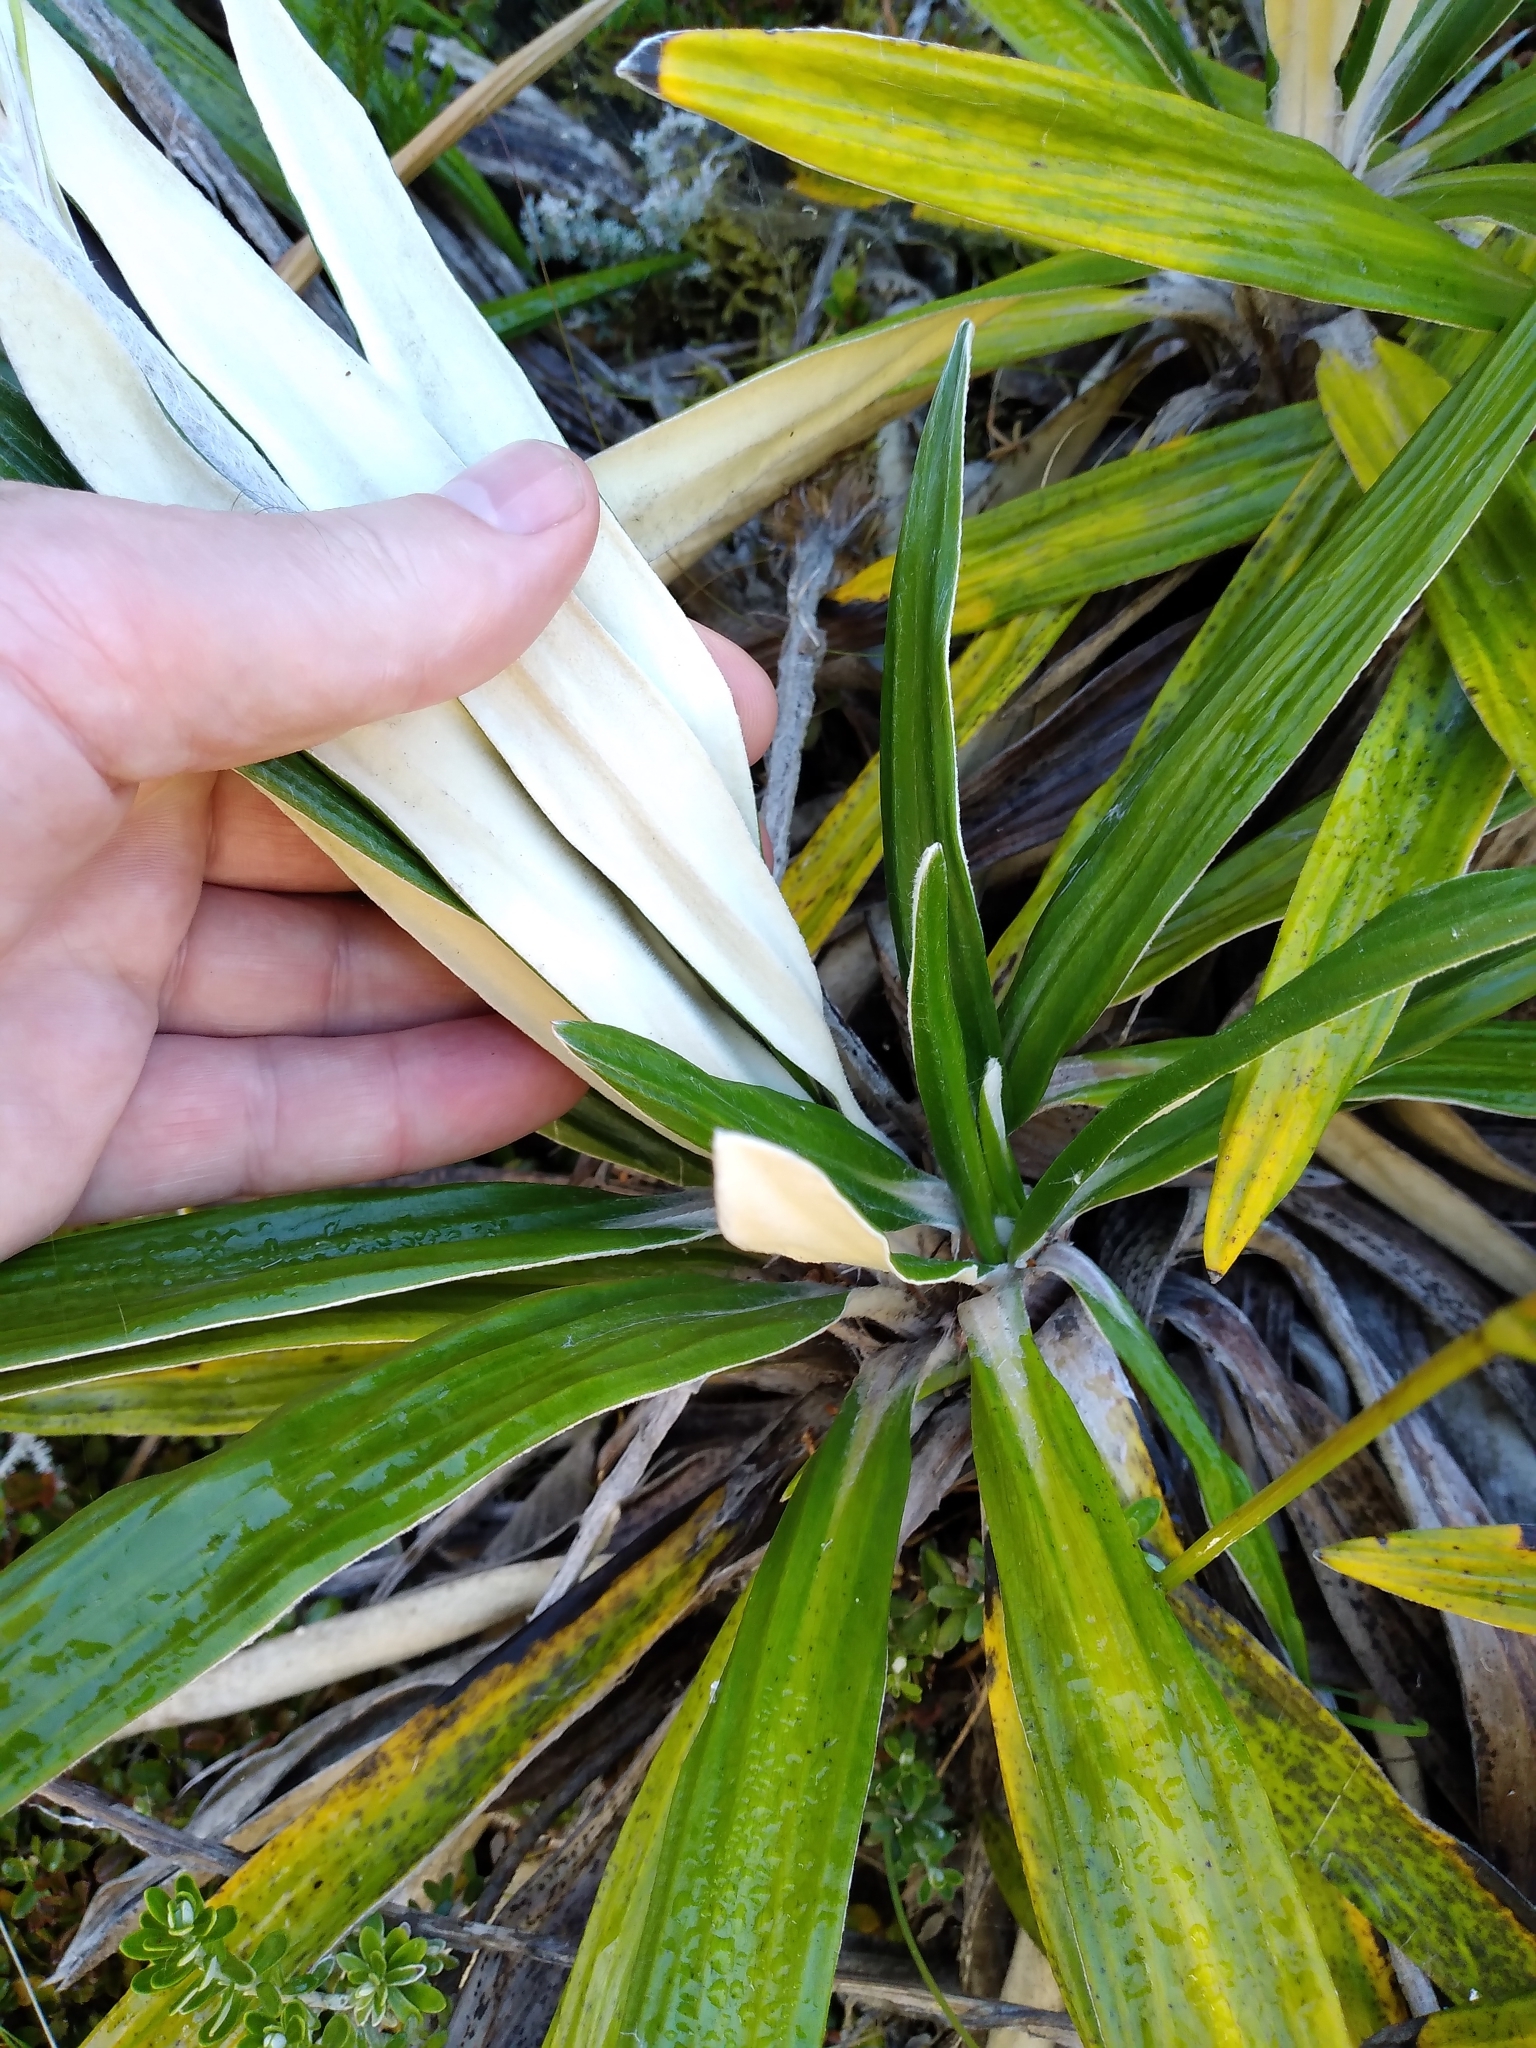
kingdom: Plantae
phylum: Tracheophyta
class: Magnoliopsida
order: Asterales
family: Asteraceae
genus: Celmisia
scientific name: Celmisia spectabilis
